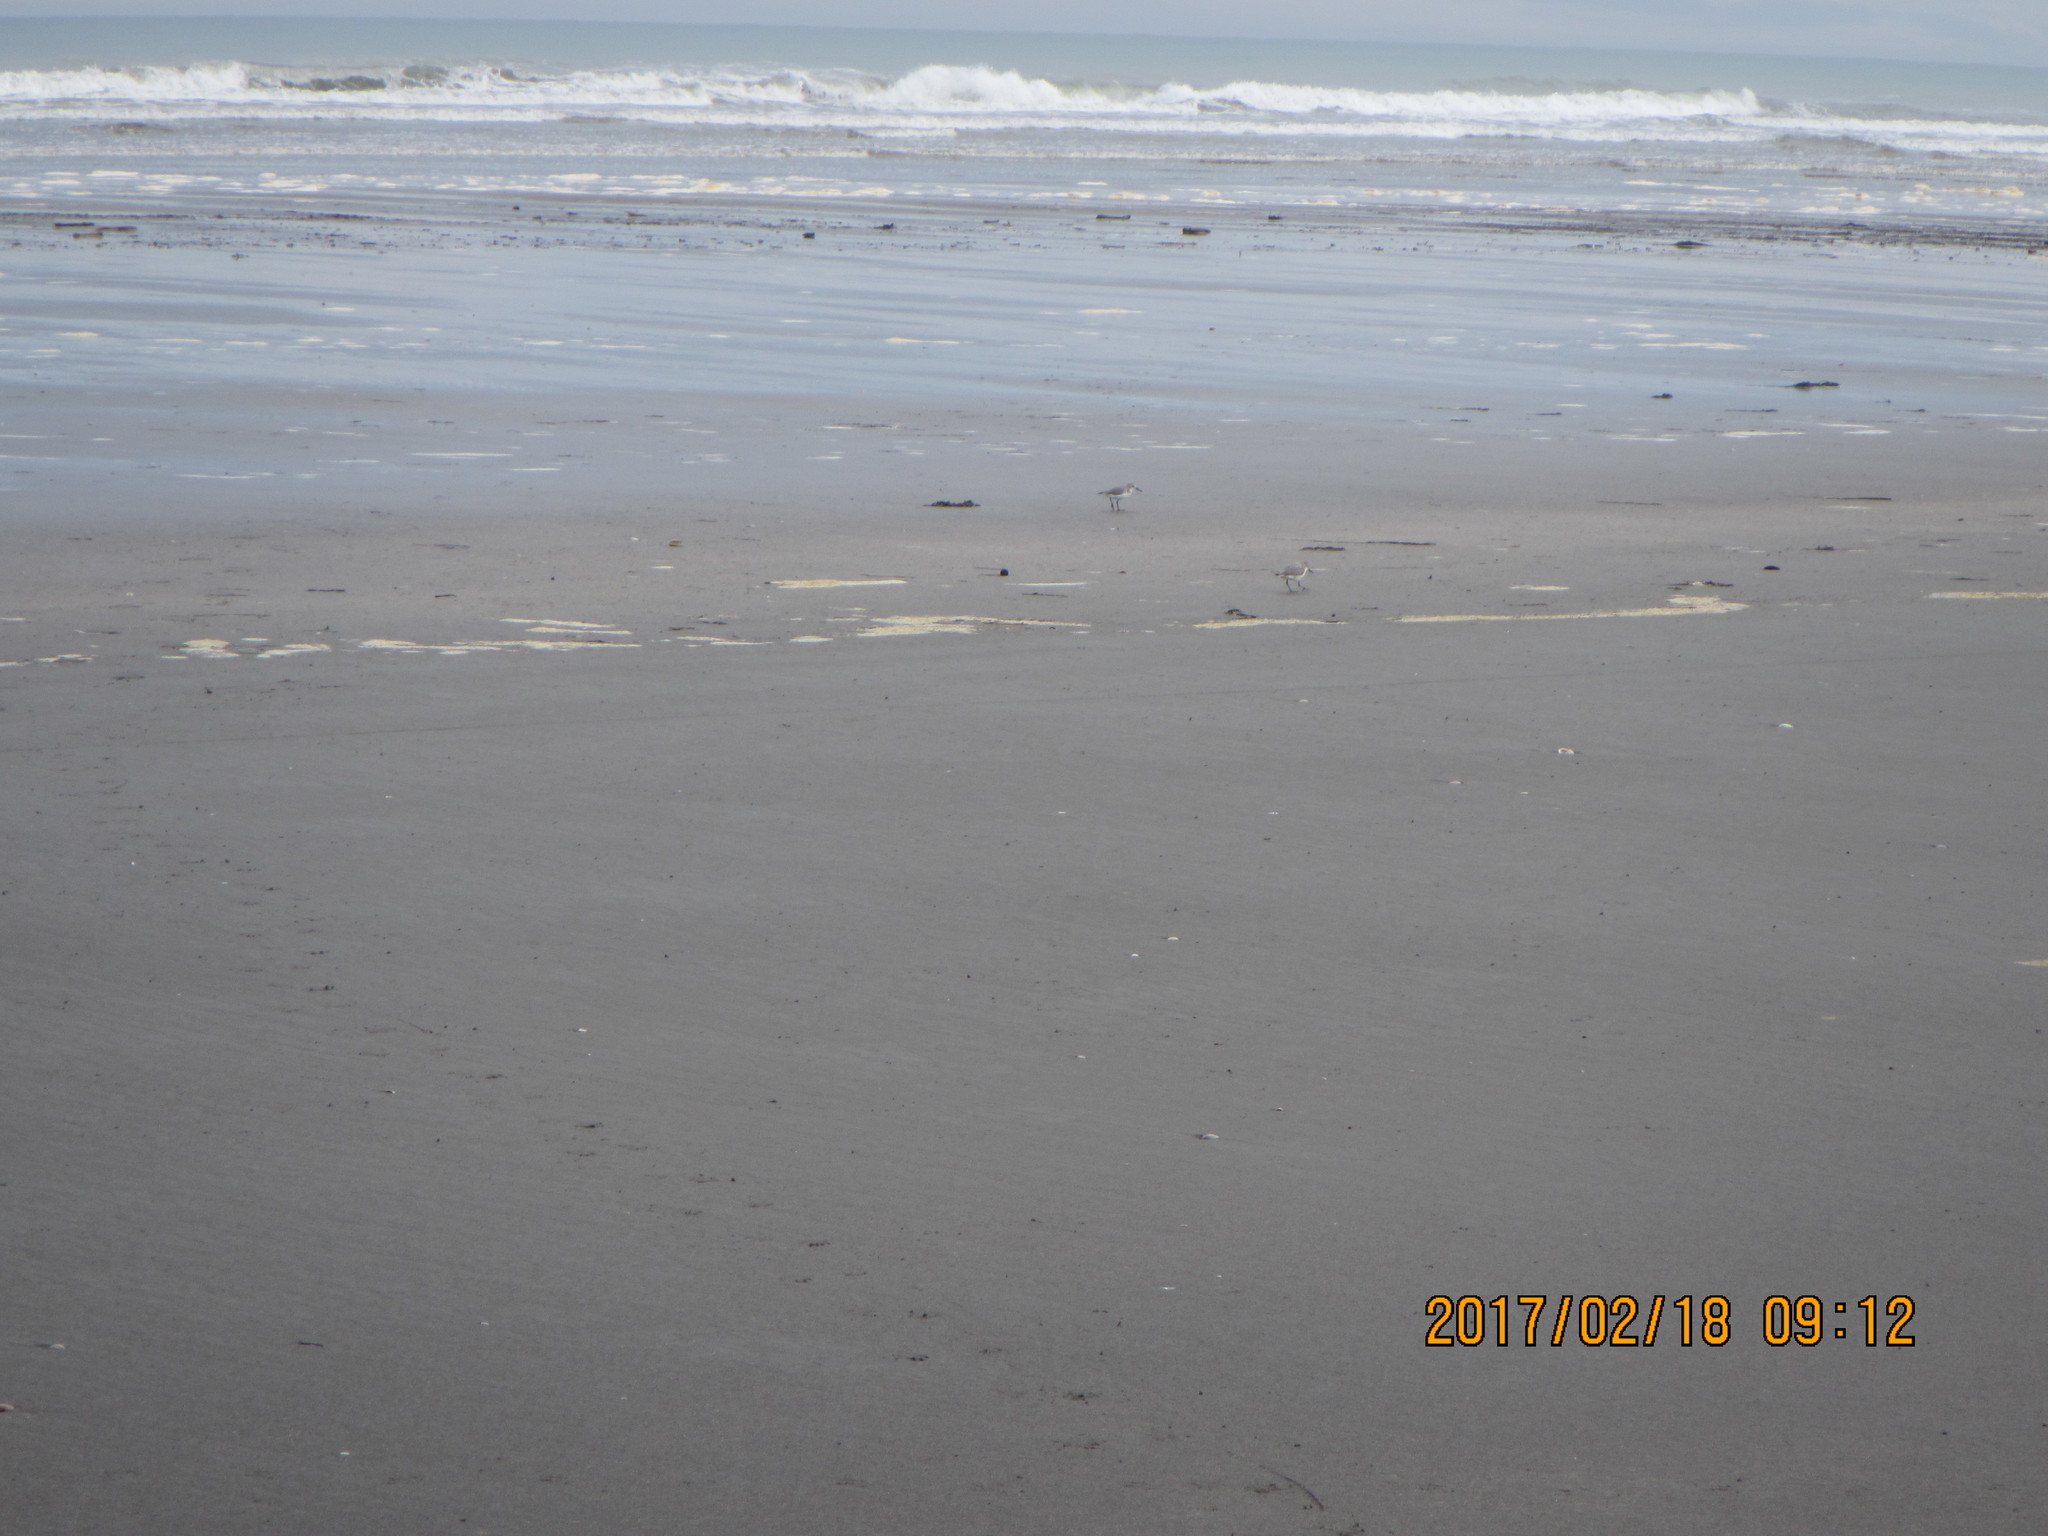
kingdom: Animalia
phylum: Chordata
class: Aves
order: Charadriiformes
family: Charadriidae
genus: Anarhynchus
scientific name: Anarhynchus frontalis
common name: Wrybill
